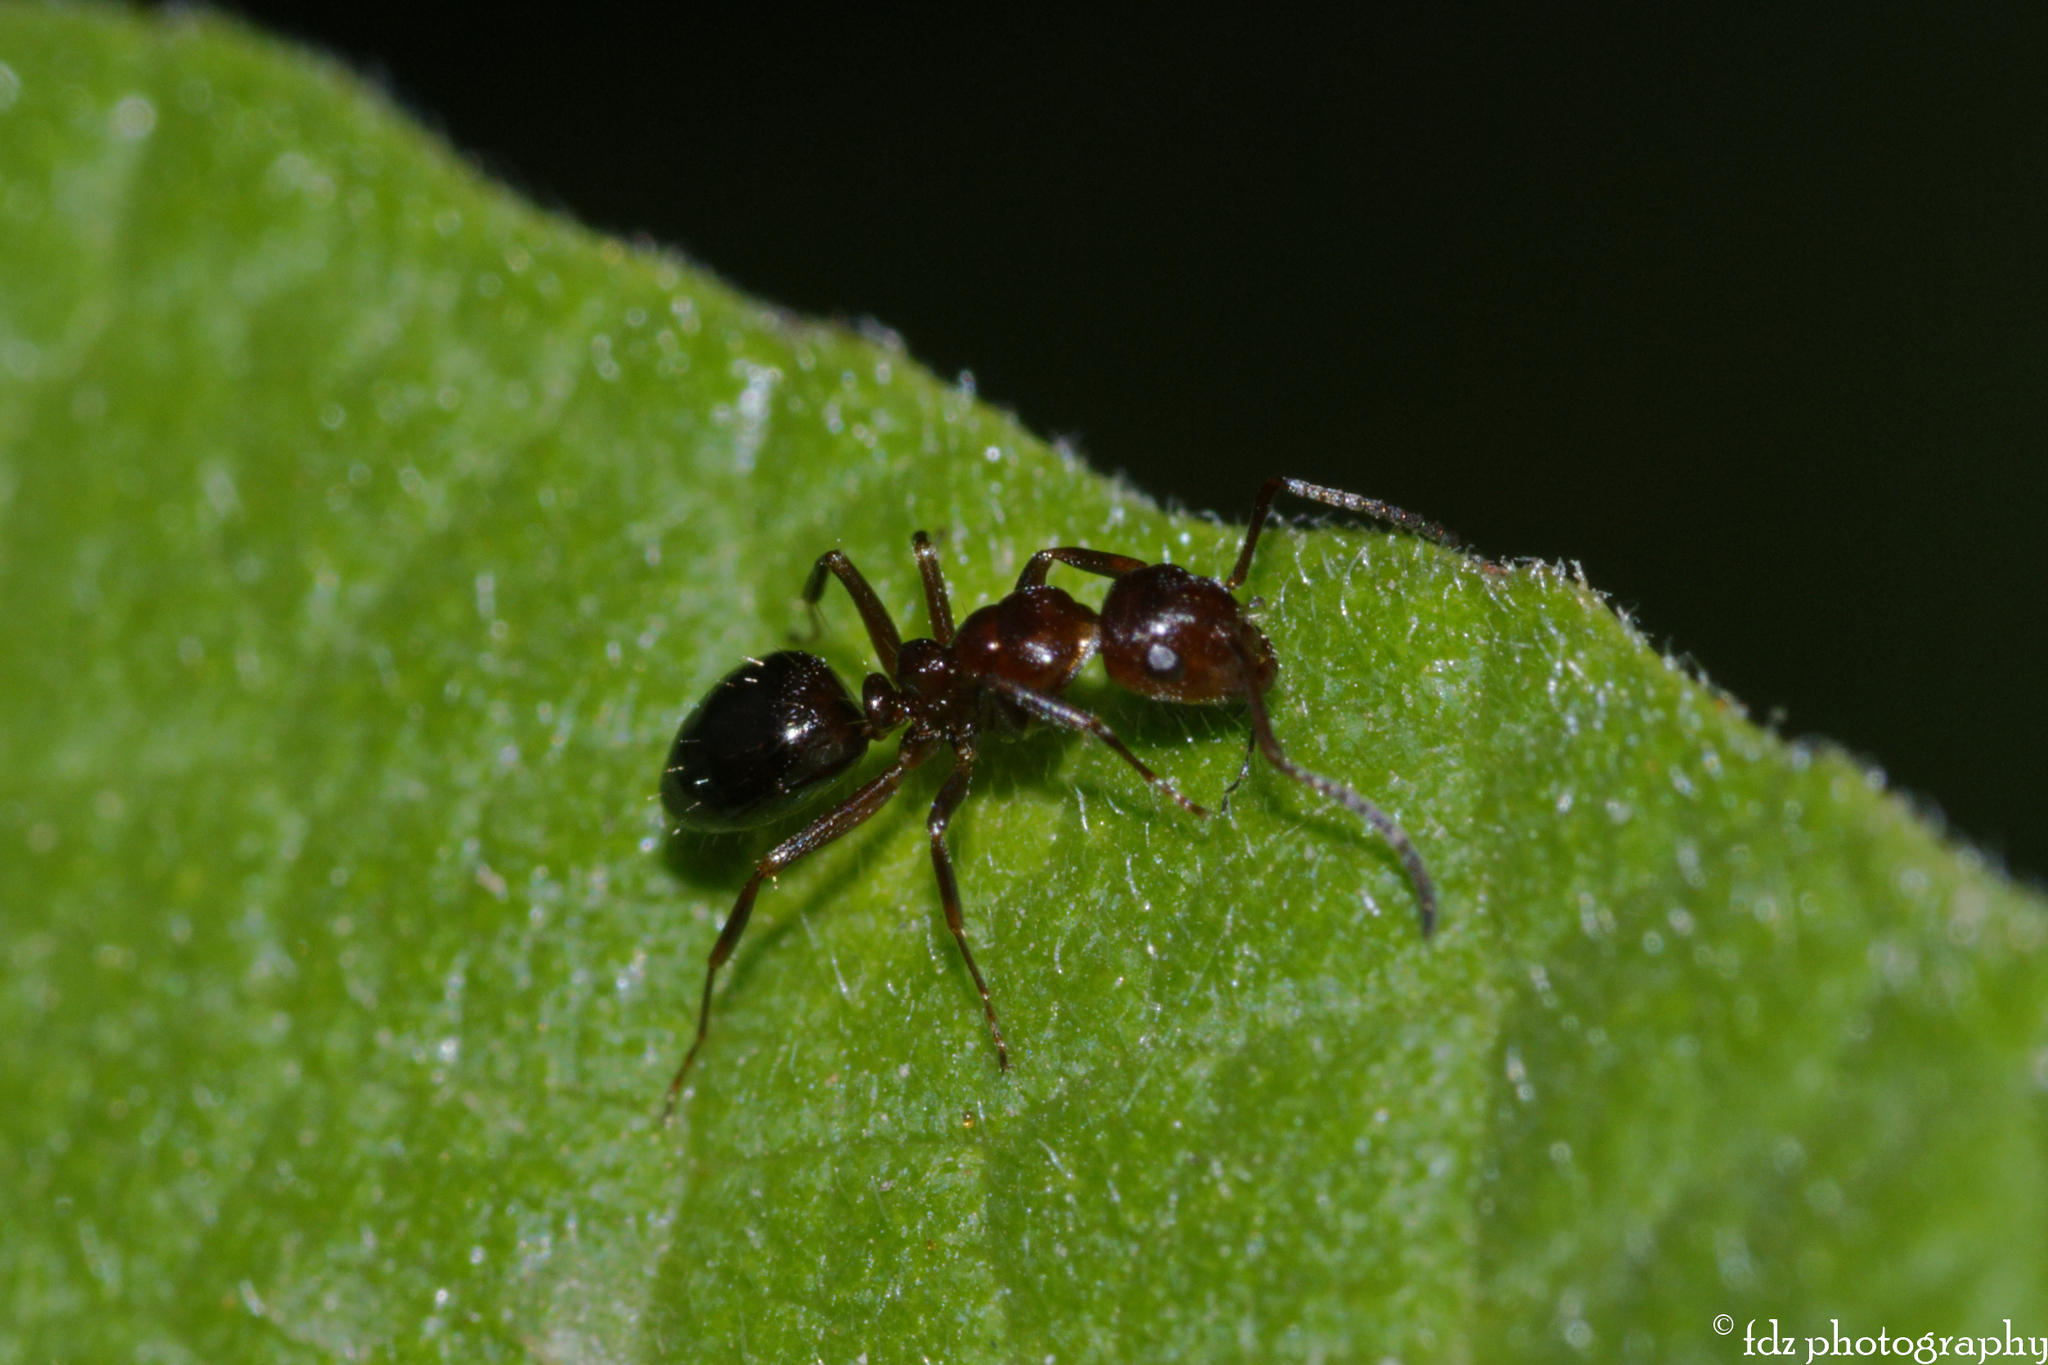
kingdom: Animalia
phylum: Arthropoda
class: Insecta
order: Hymenoptera
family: Formicidae
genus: Camponotus
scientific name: Camponotus lateralis
